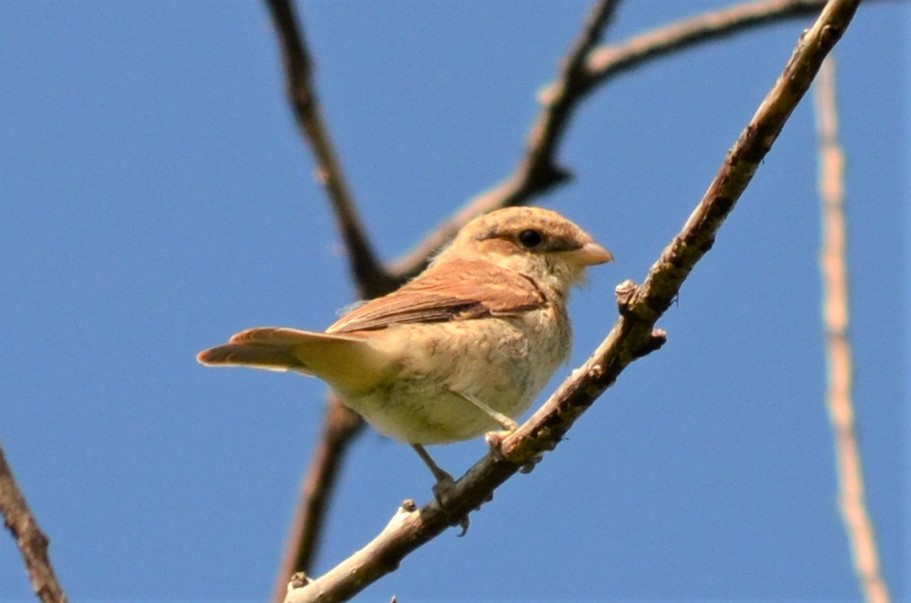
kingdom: Animalia
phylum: Chordata
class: Aves
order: Passeriformes
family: Laniidae
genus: Lanius
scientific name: Lanius collurio
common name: Red-backed shrike
